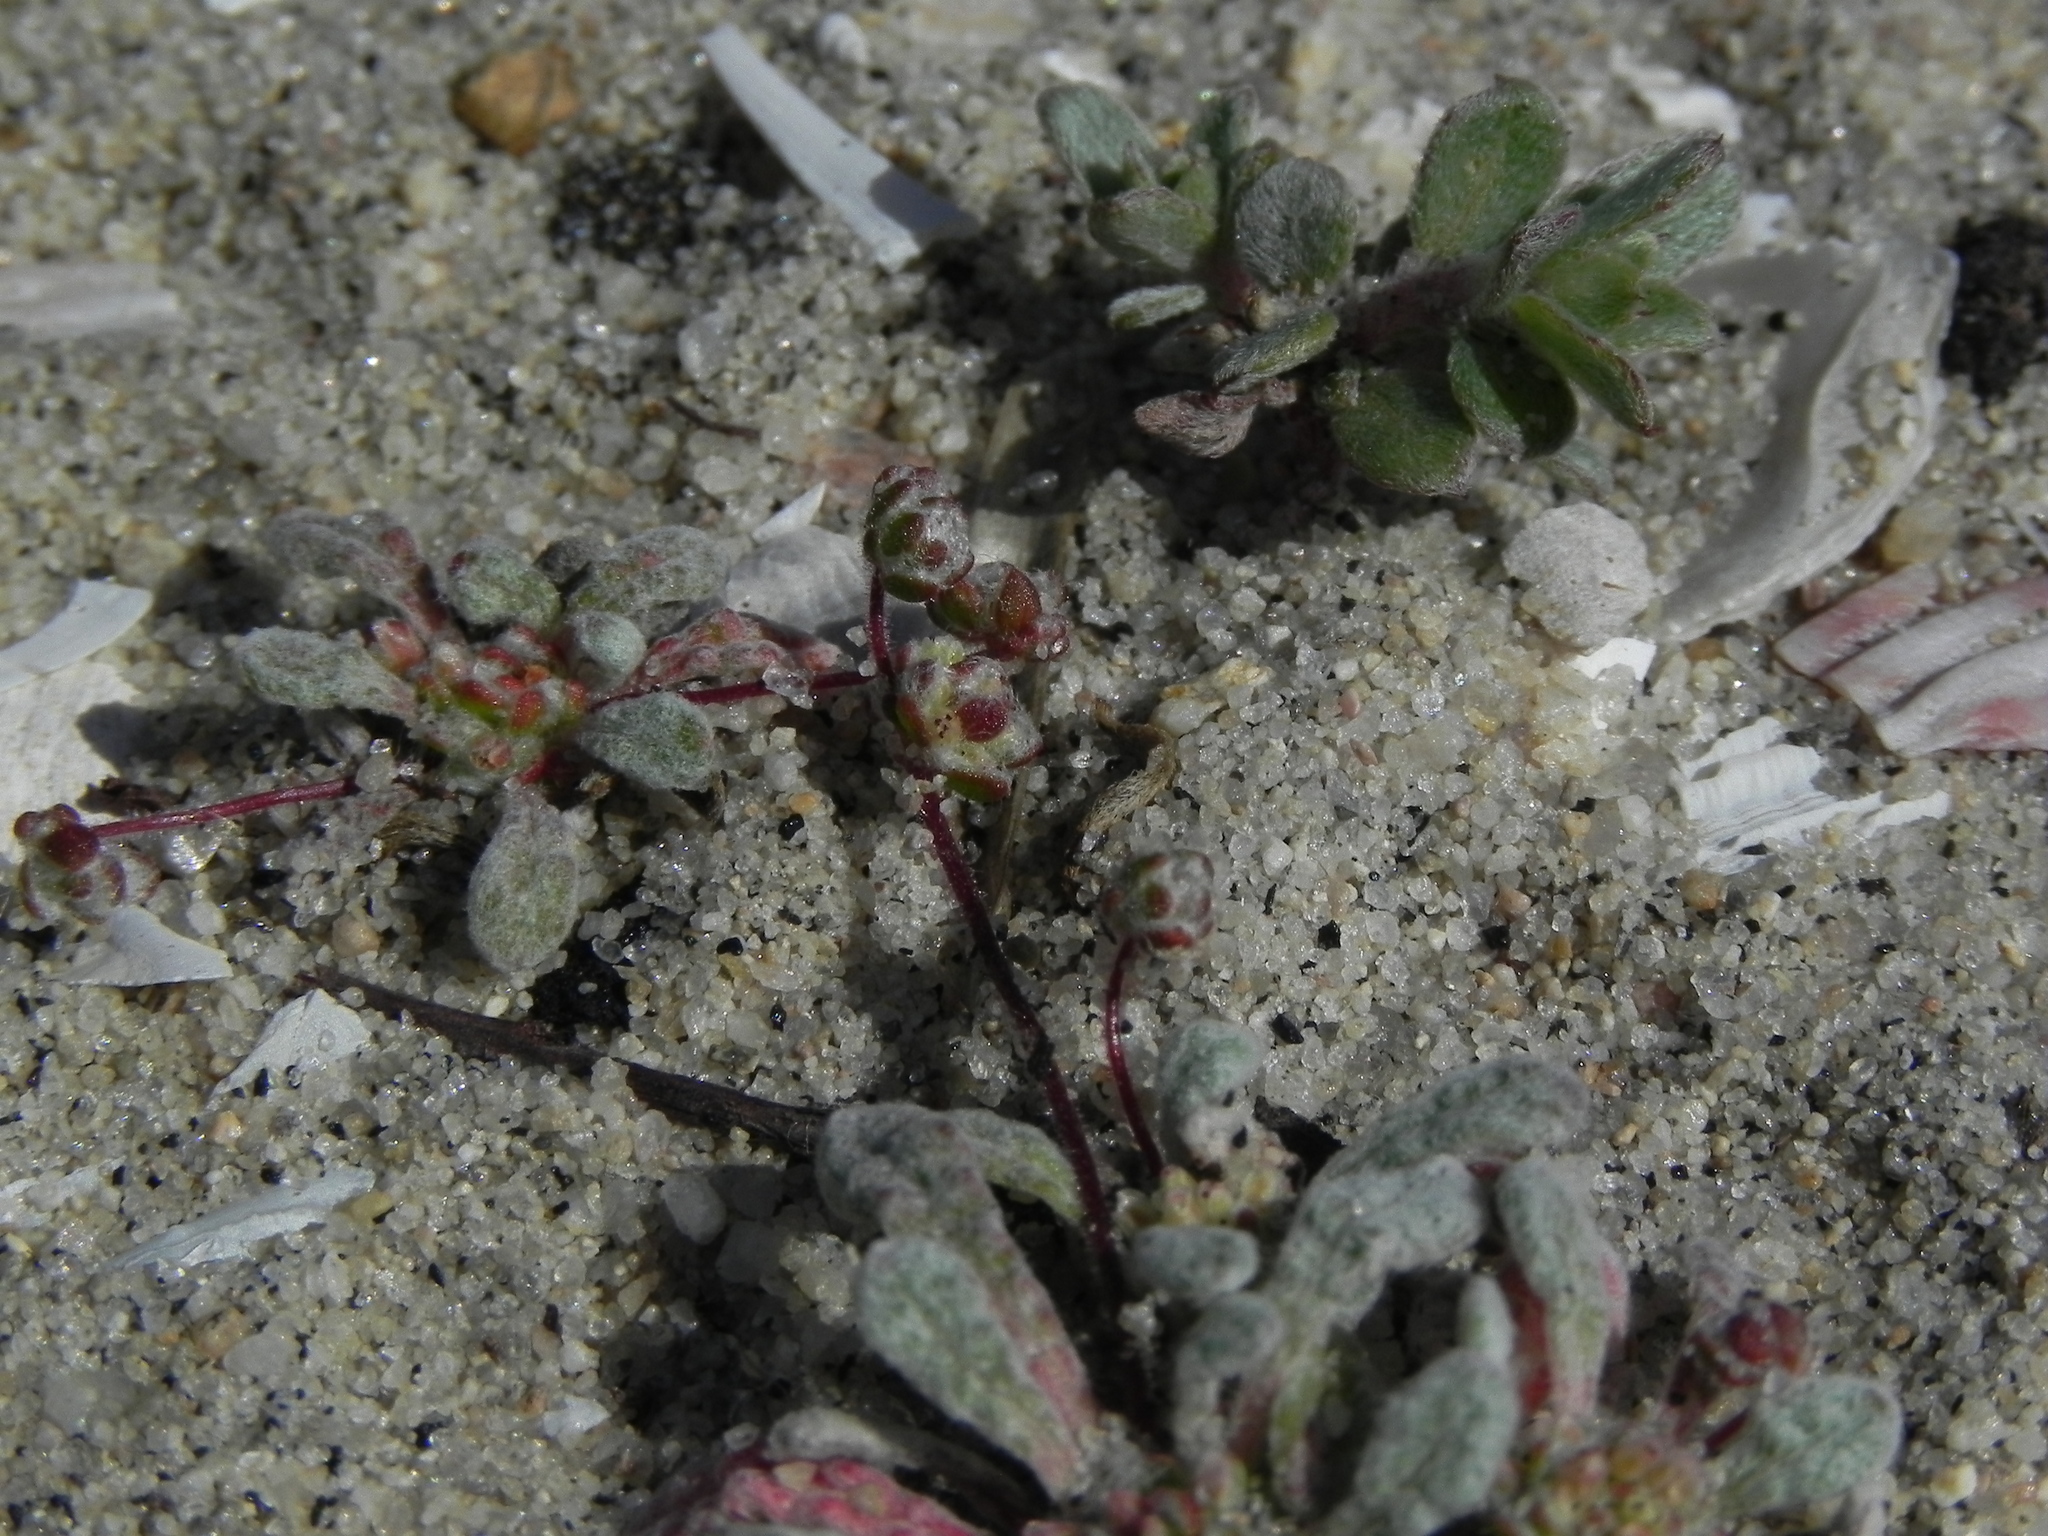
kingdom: Plantae
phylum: Tracheophyta
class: Magnoliopsida
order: Caryophyllales
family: Polygonaceae
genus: Nemacaulis
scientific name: Nemacaulis denudata
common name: Woolly-heads
